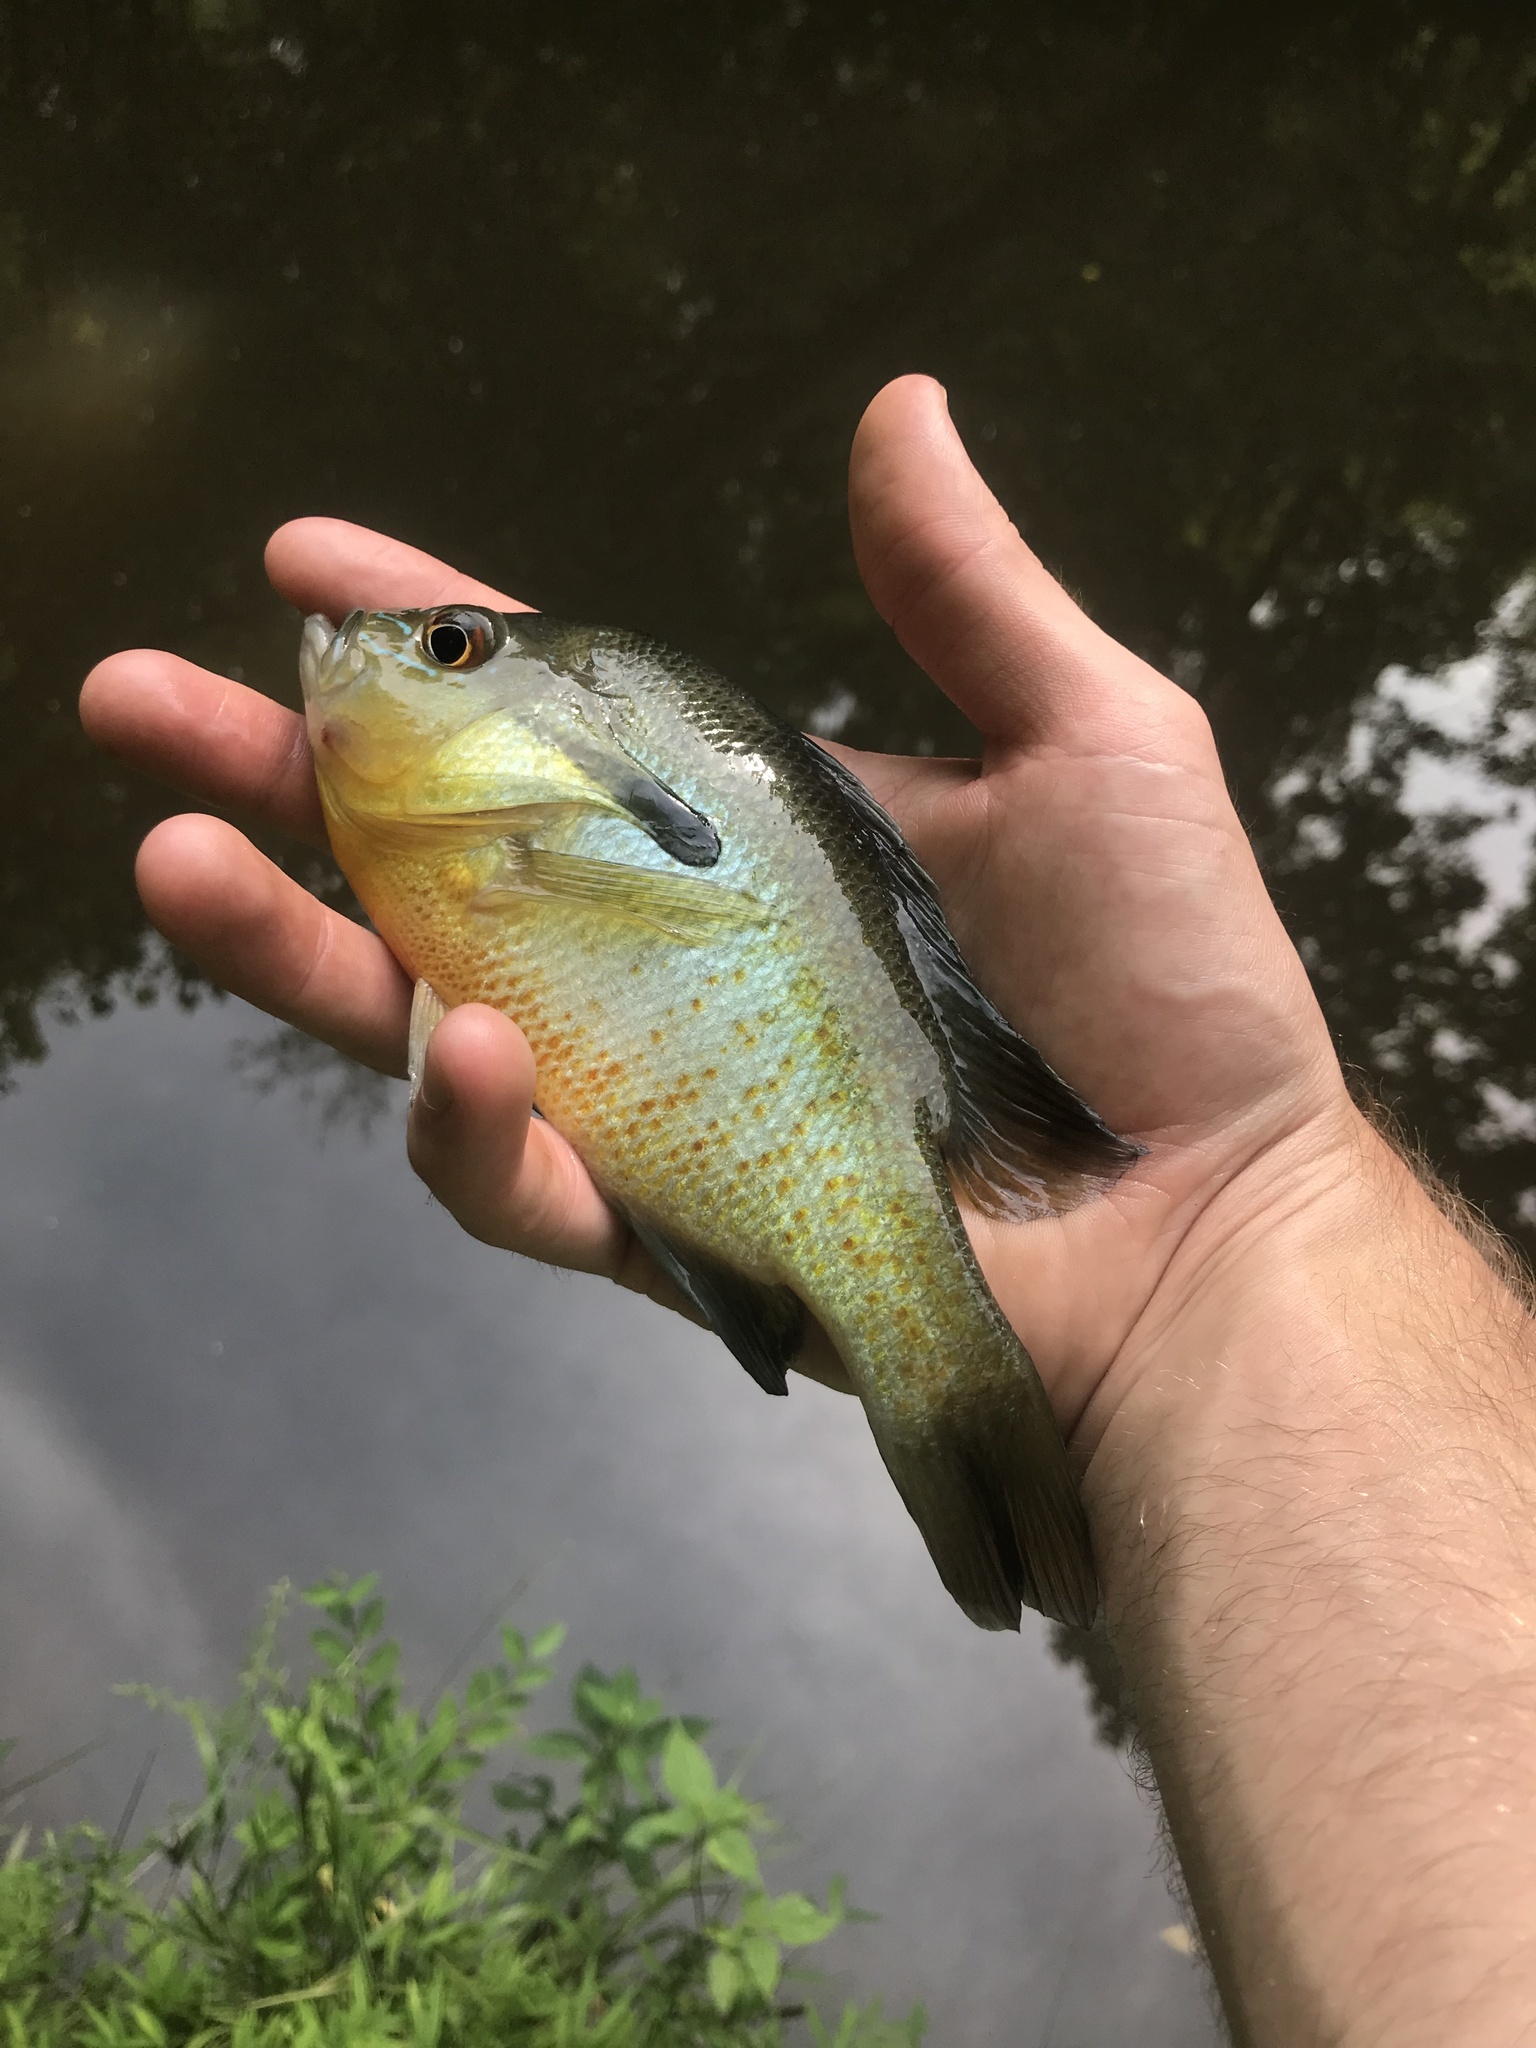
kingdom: Animalia
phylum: Chordata
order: Perciformes
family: Centrarchidae
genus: Lepomis
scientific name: Lepomis auritus
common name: Redbreast sunfish
